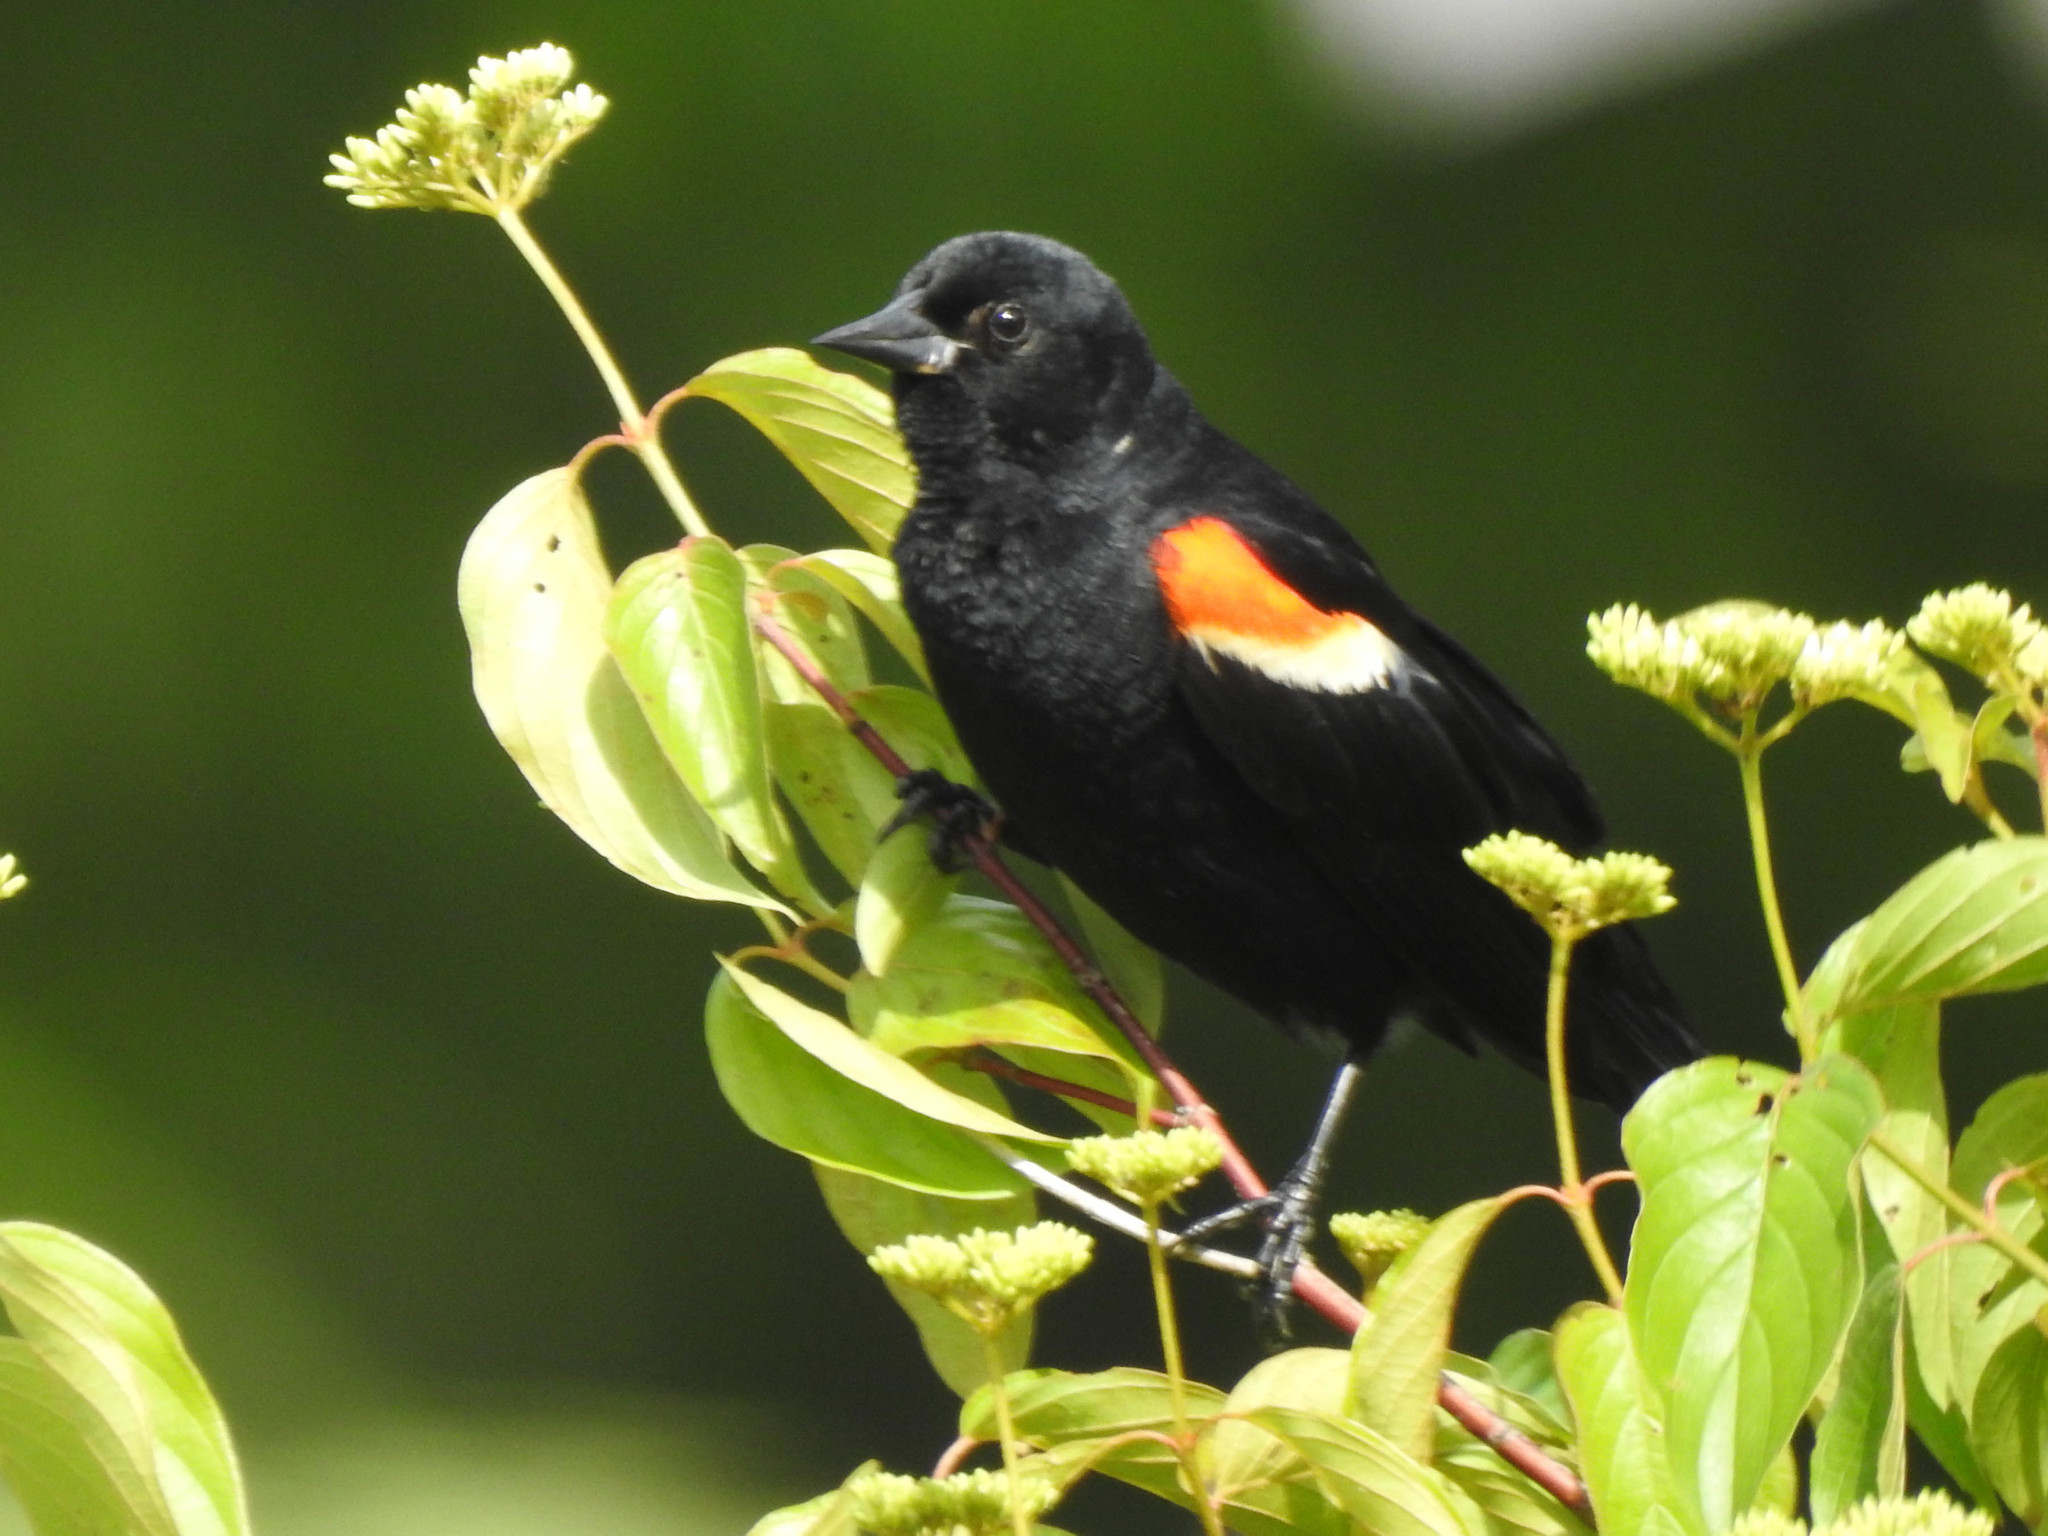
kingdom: Animalia
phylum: Chordata
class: Aves
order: Passeriformes
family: Icteridae
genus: Agelaius
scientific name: Agelaius phoeniceus
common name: Red-winged blackbird
